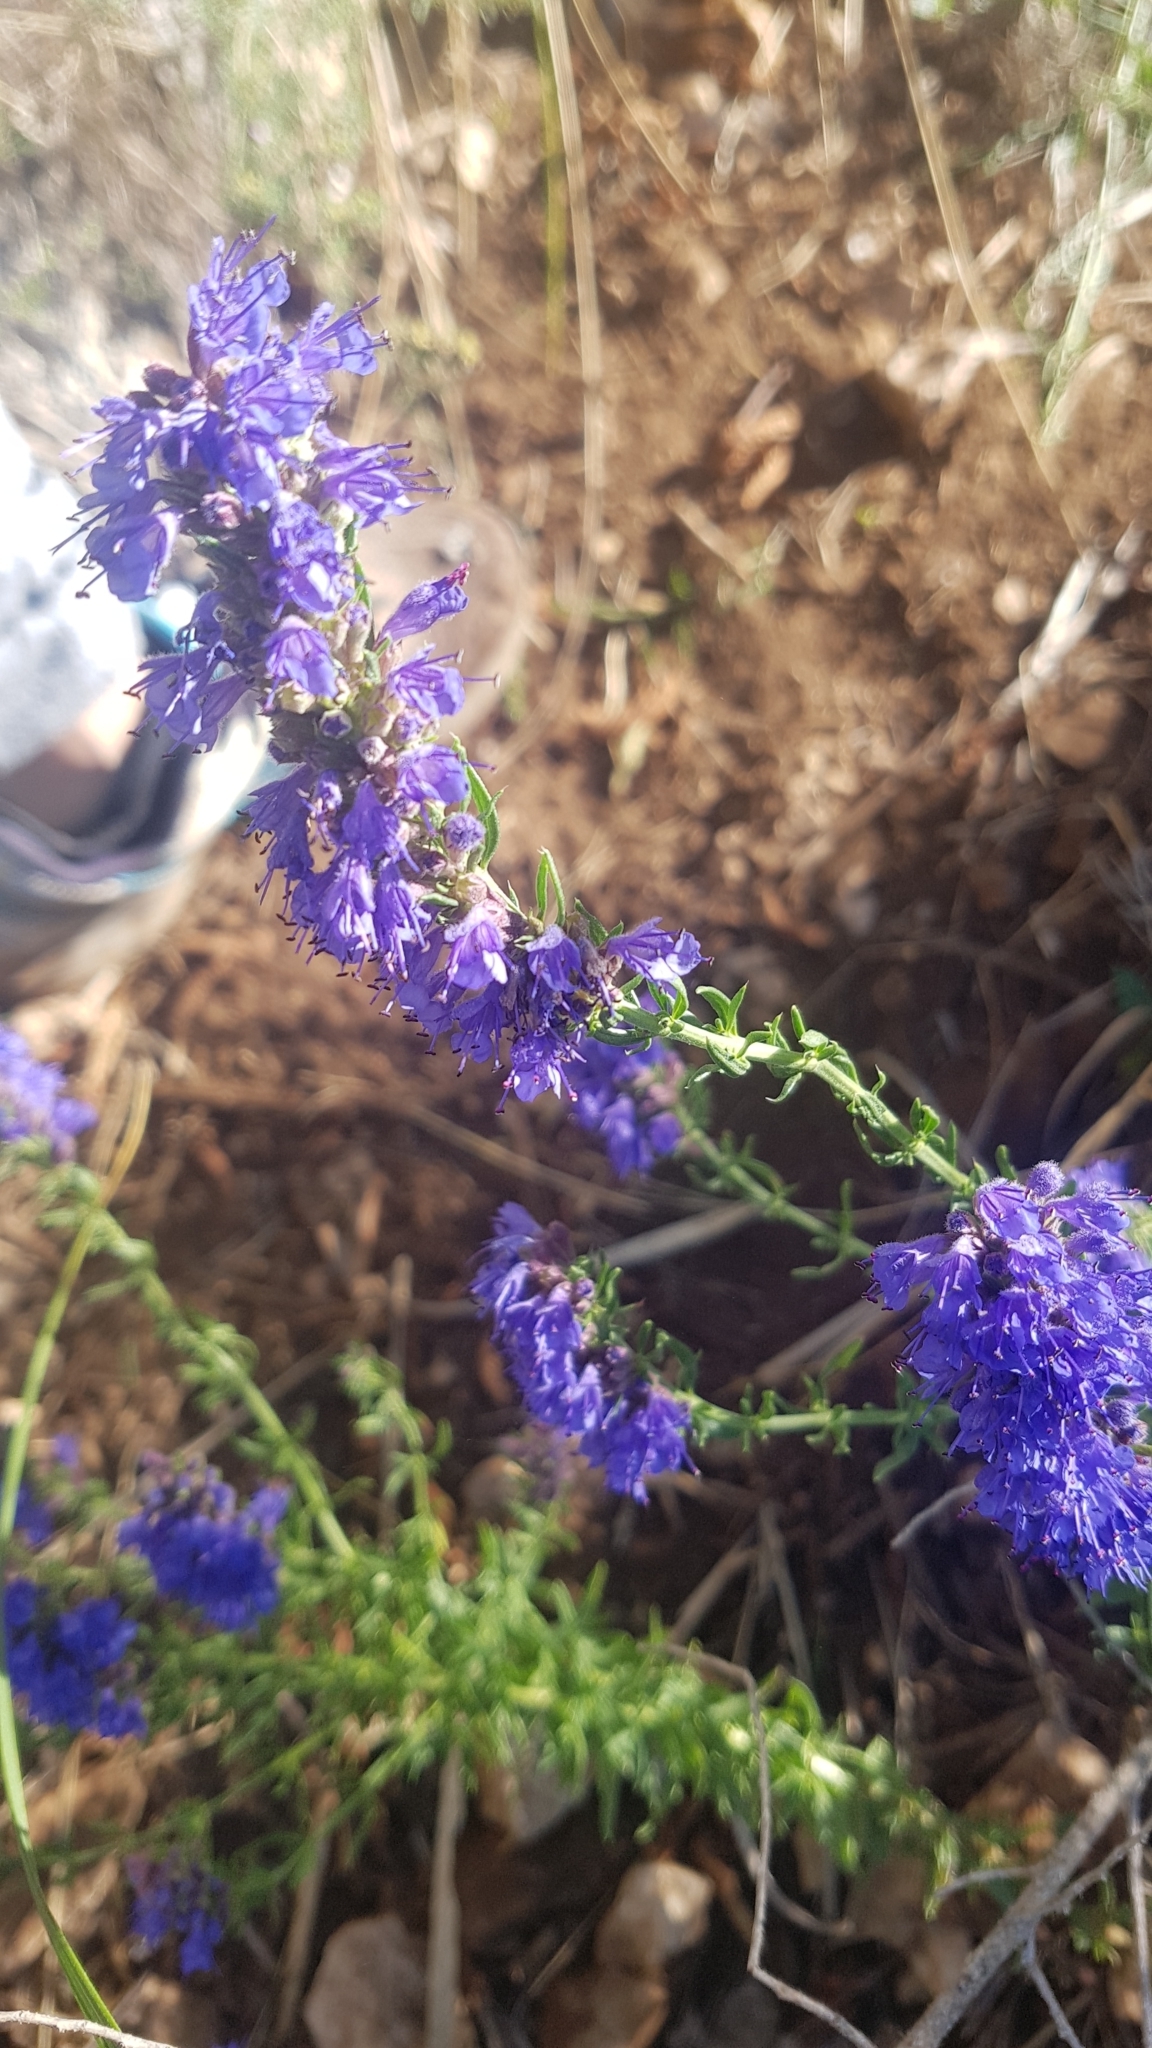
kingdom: Plantae
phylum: Tracheophyta
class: Magnoliopsida
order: Lamiales
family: Lamiaceae
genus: Hyssopus
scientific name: Hyssopus officinalis
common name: Hyssop
